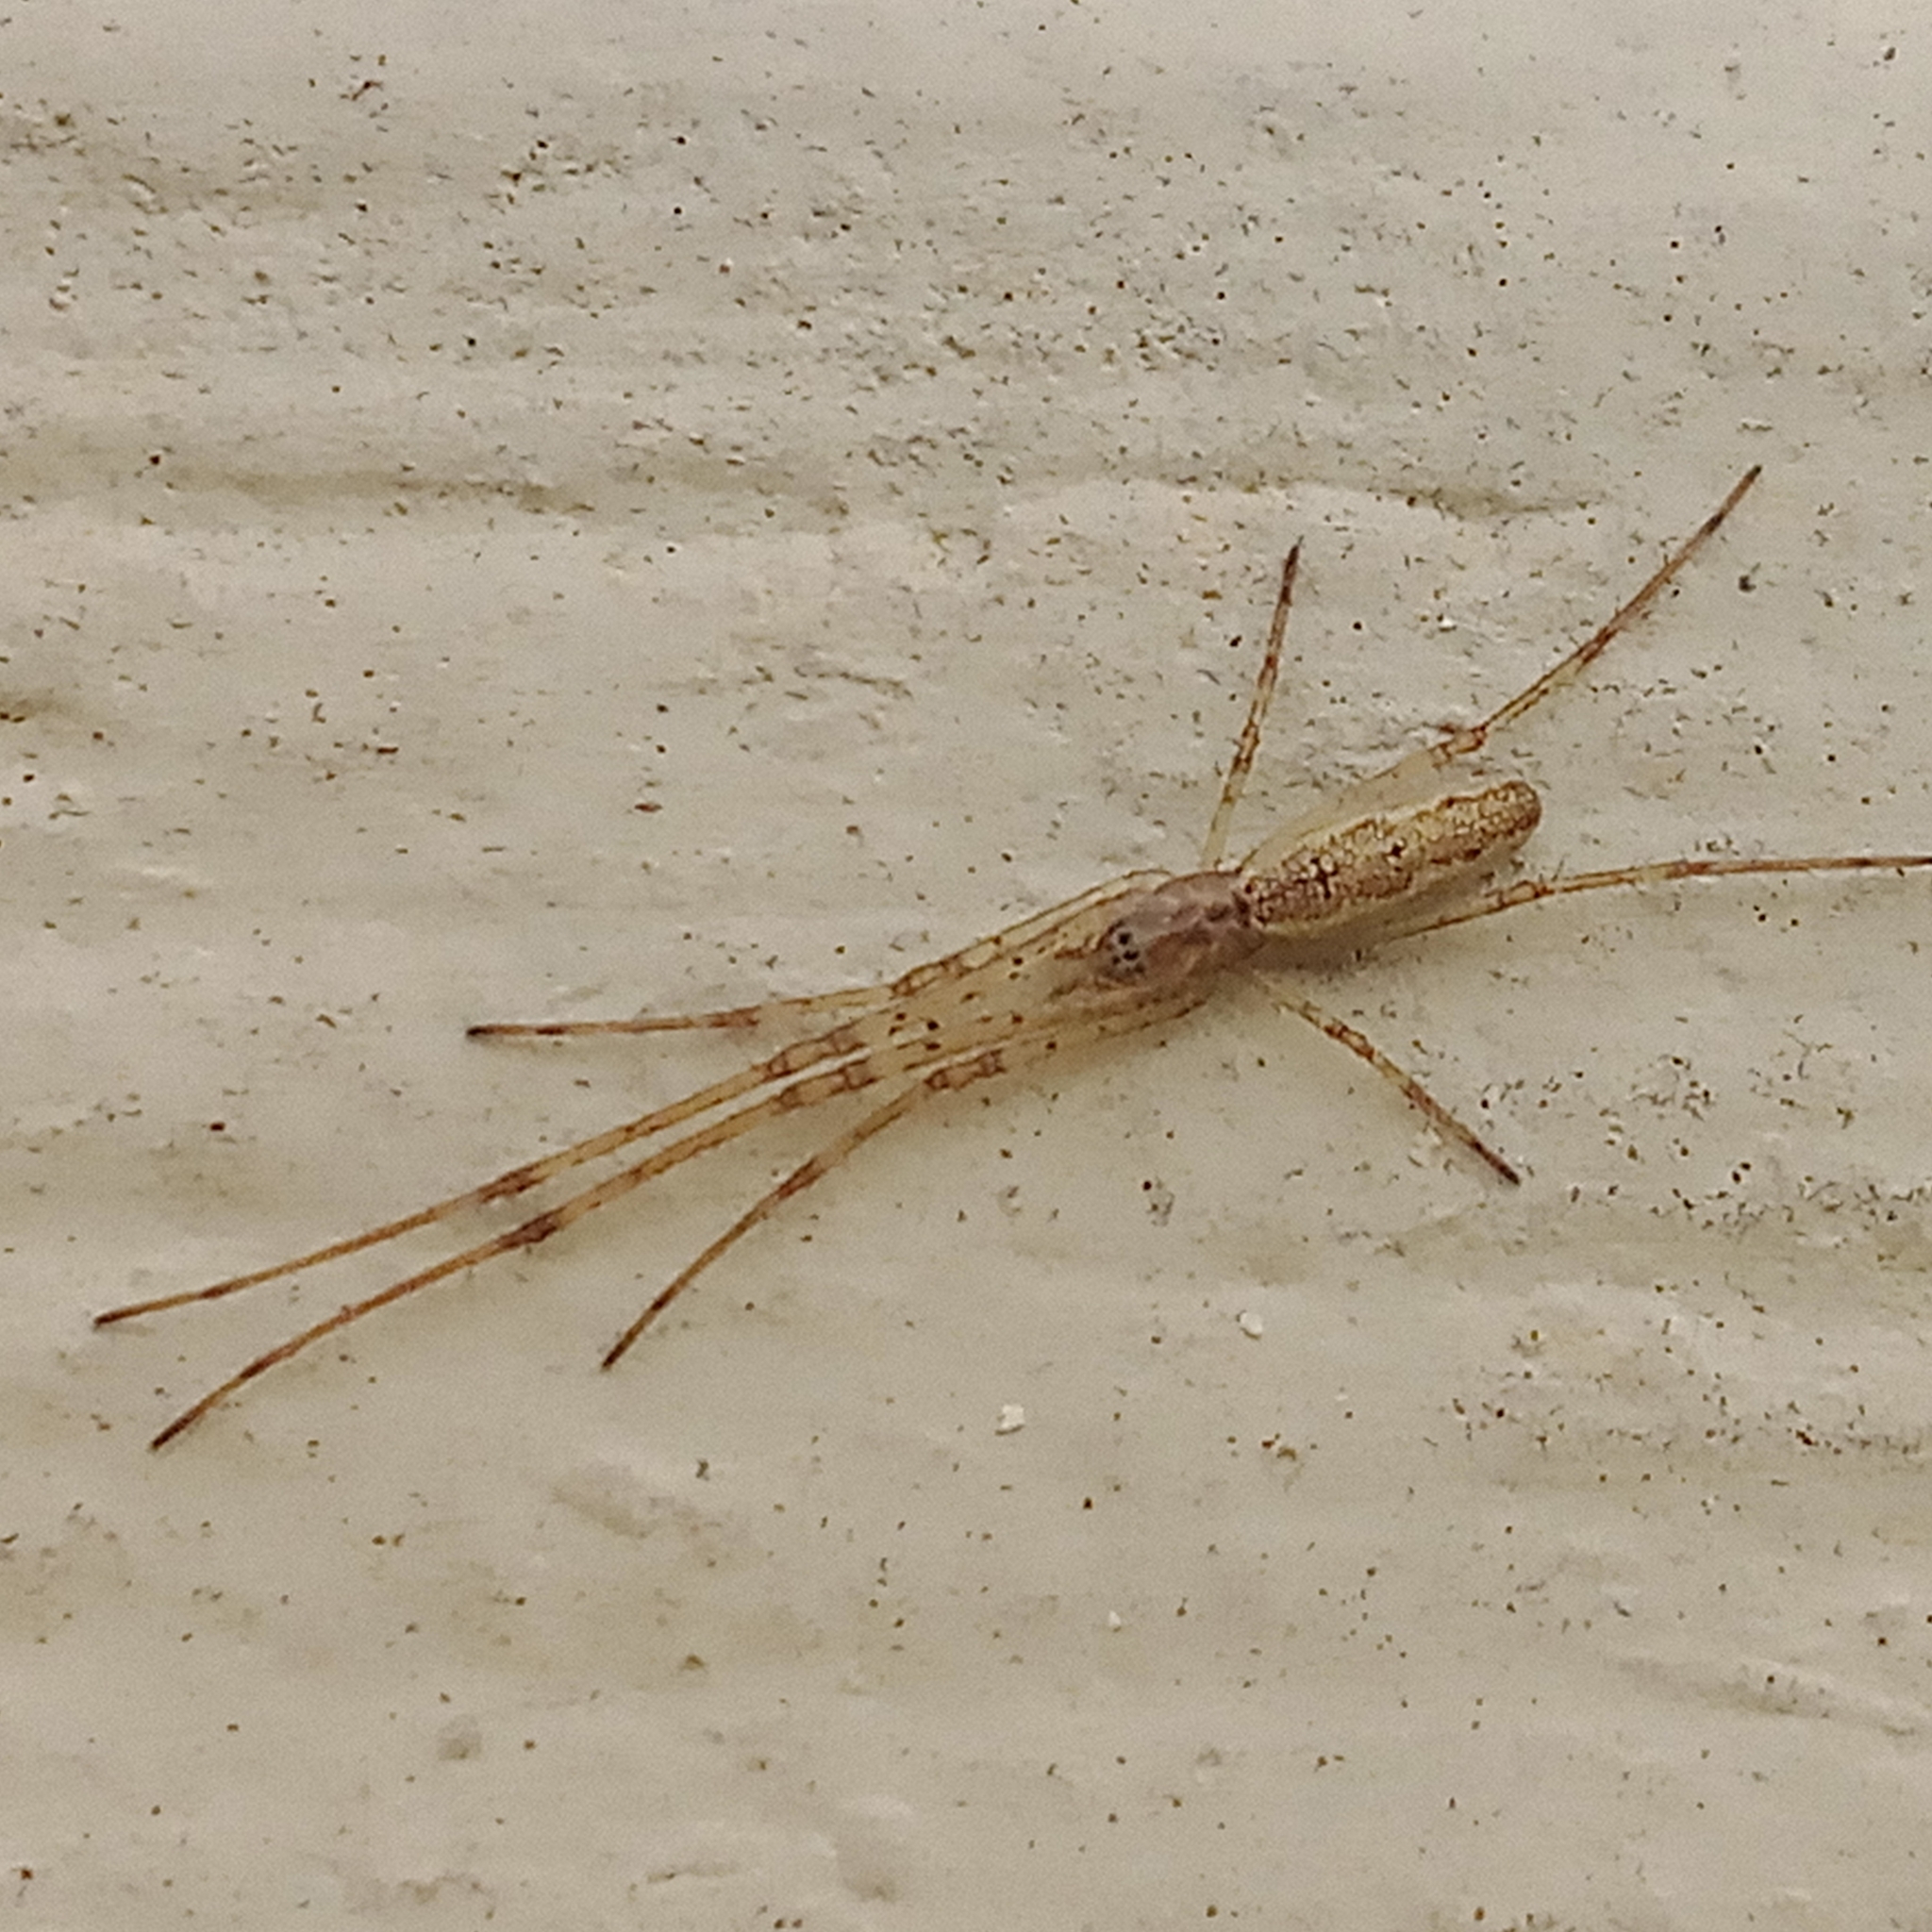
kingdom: Animalia
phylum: Arthropoda
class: Arachnida
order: Araneae
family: Tetragnathidae
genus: Tetragnatha
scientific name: Tetragnatha
